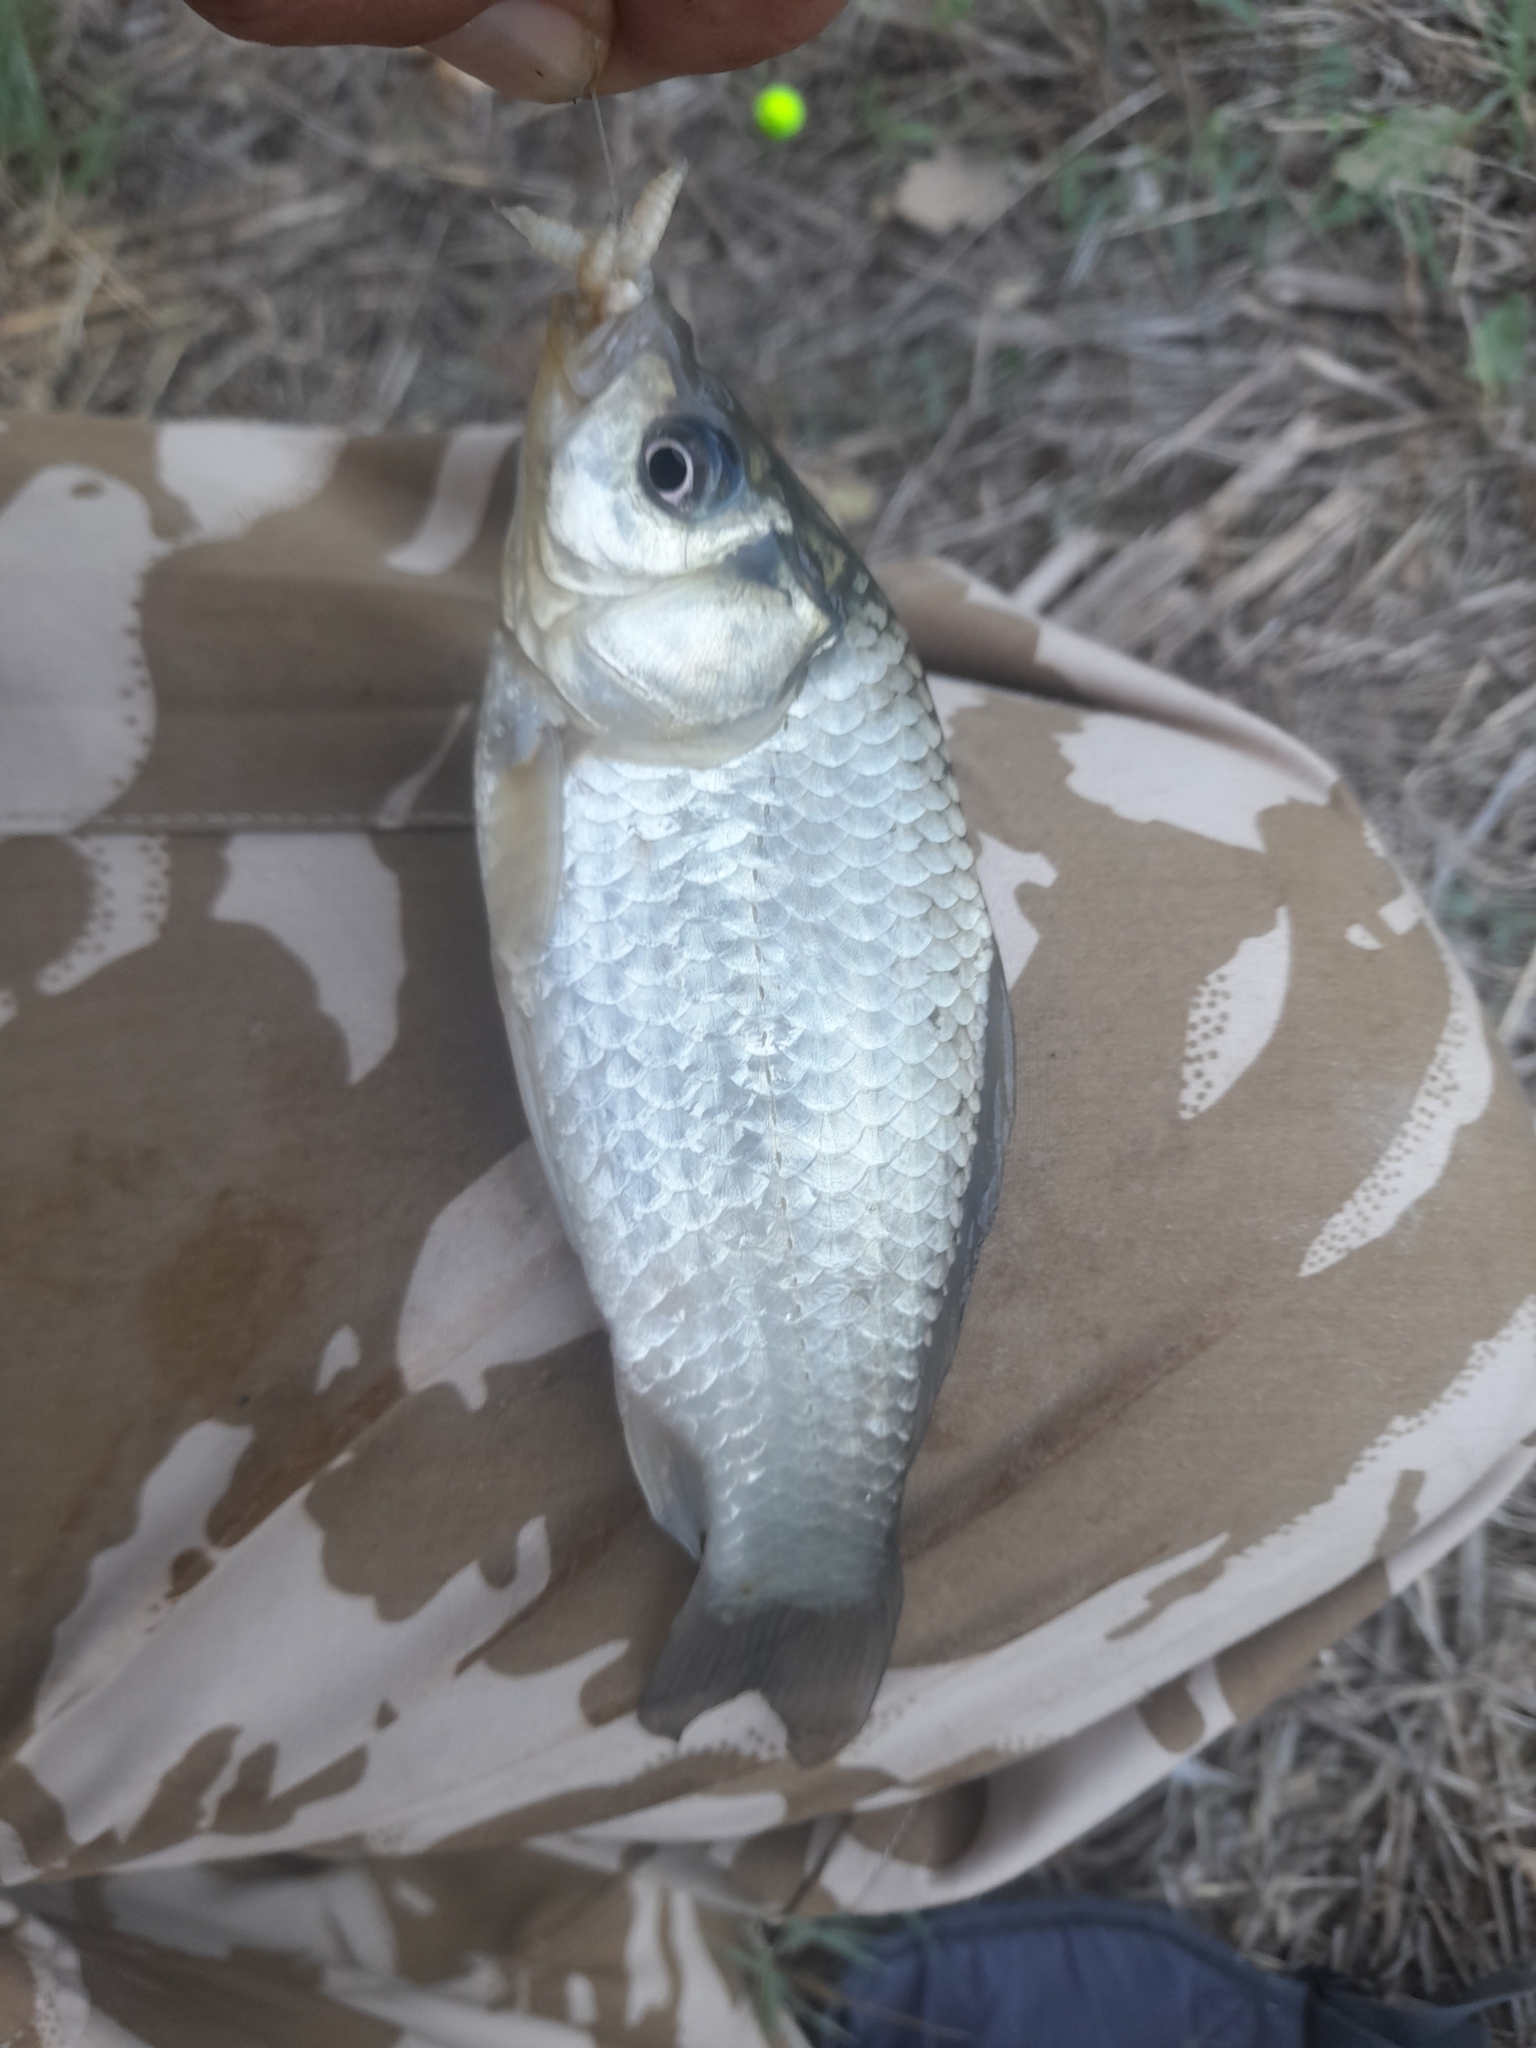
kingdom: Animalia
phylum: Chordata
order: Cypriniformes
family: Cyprinidae
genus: Carassius
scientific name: Carassius gibelio
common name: Prussian carp
